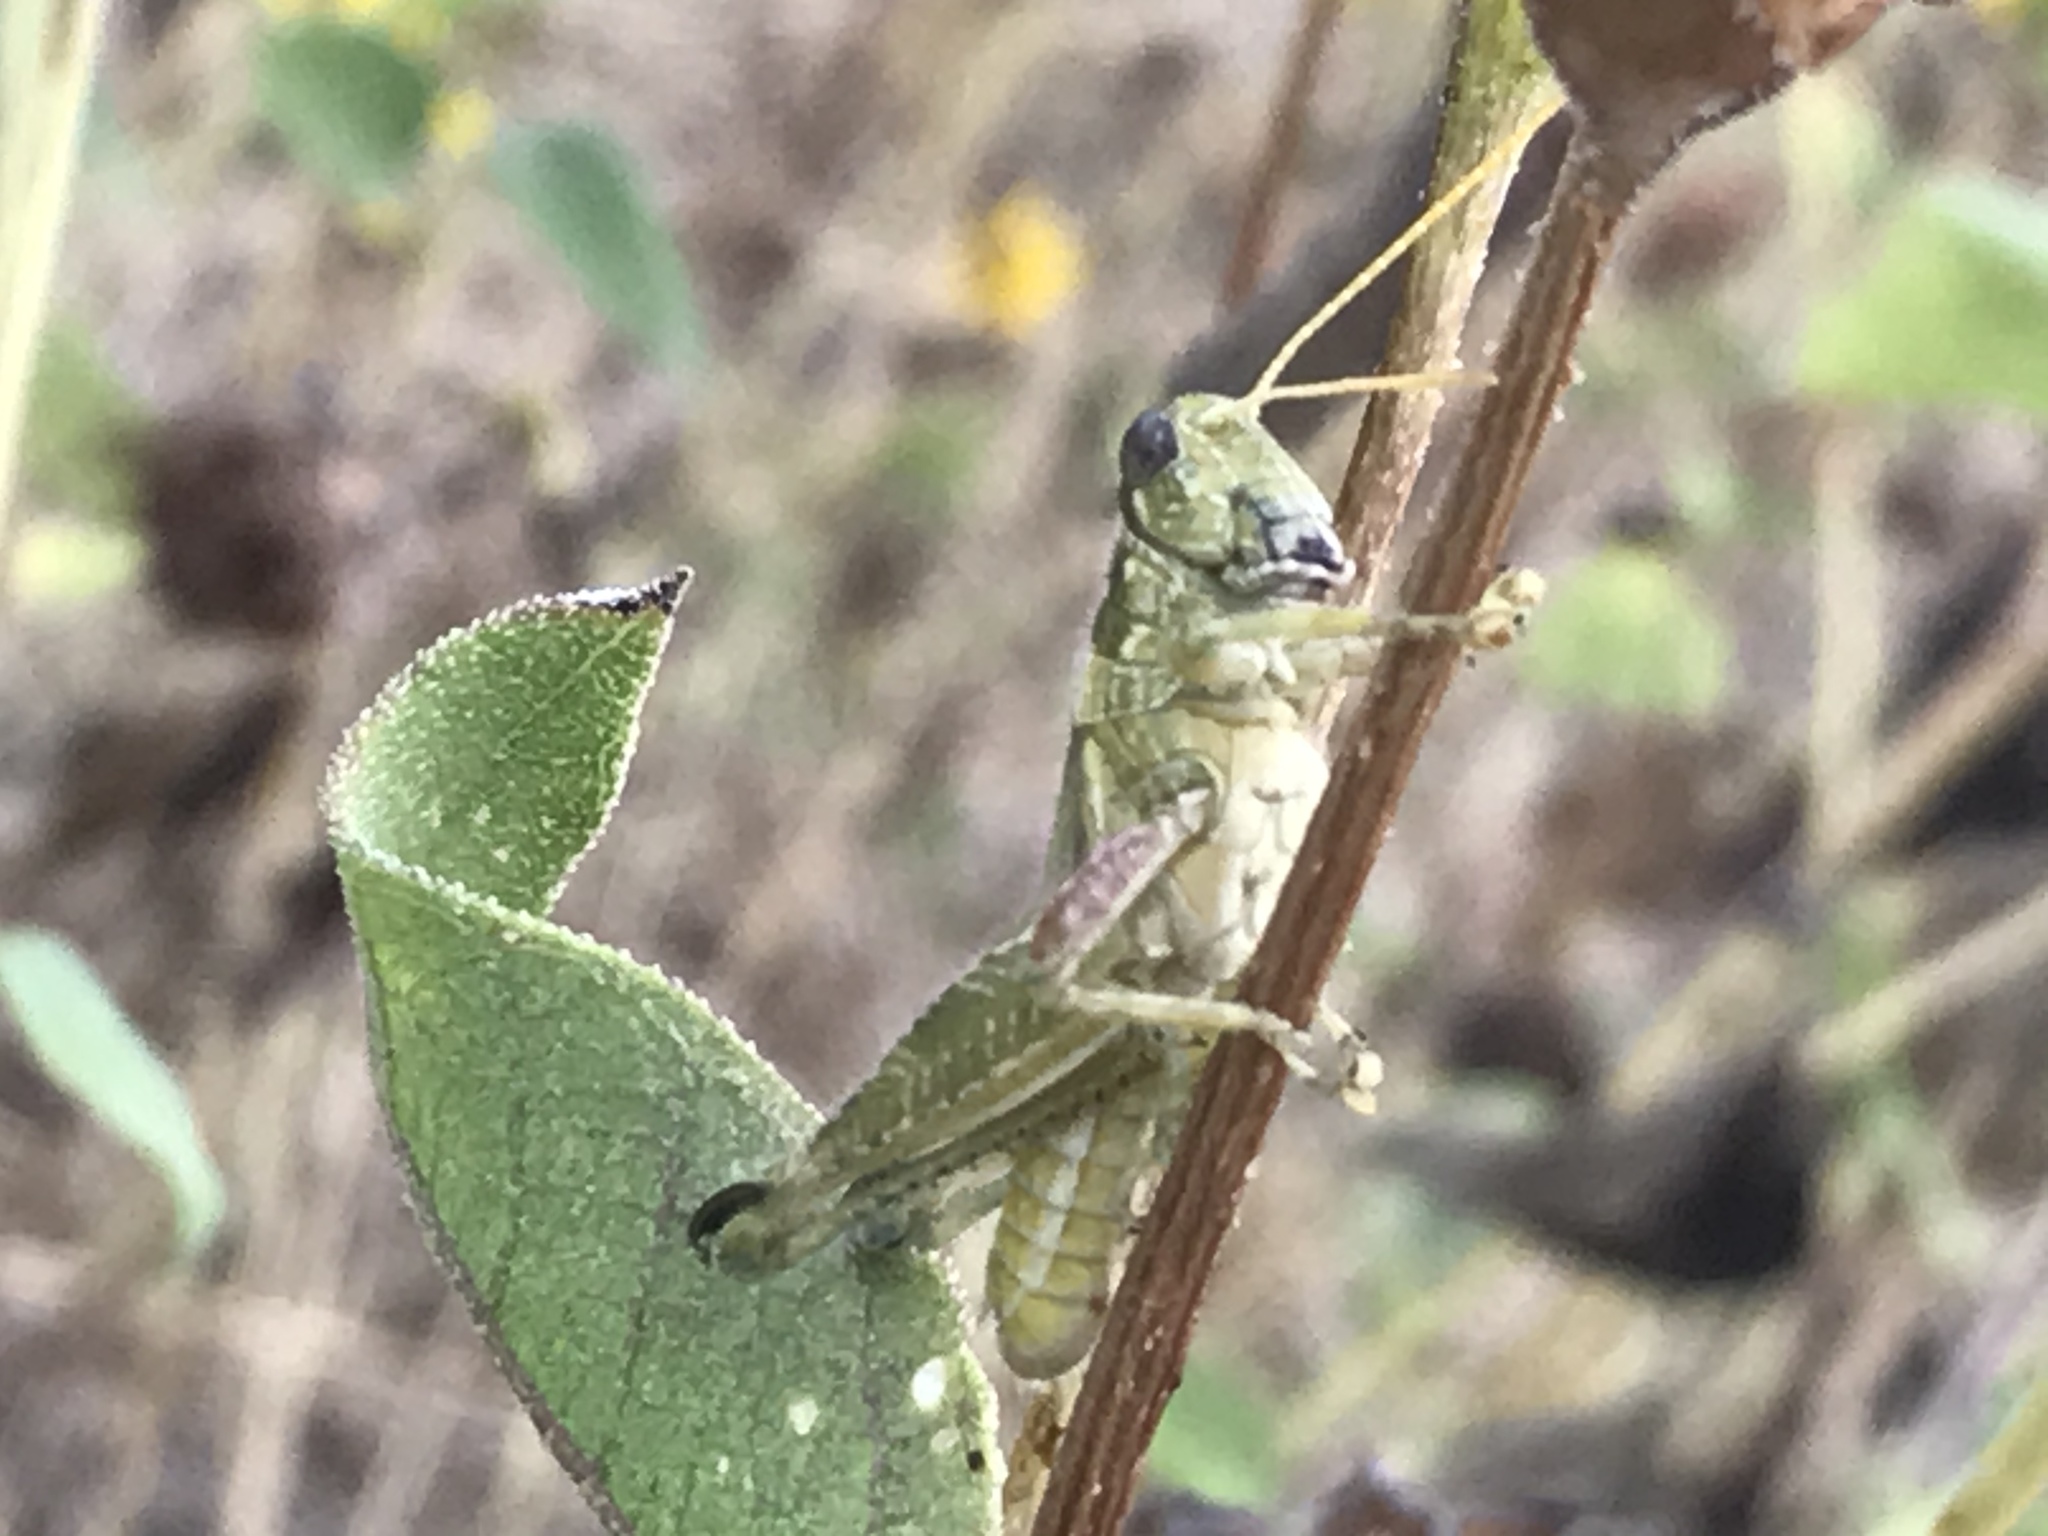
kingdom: Animalia
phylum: Arthropoda
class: Insecta
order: Orthoptera
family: Acrididae
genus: Campylacantha
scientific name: Campylacantha olivacea
